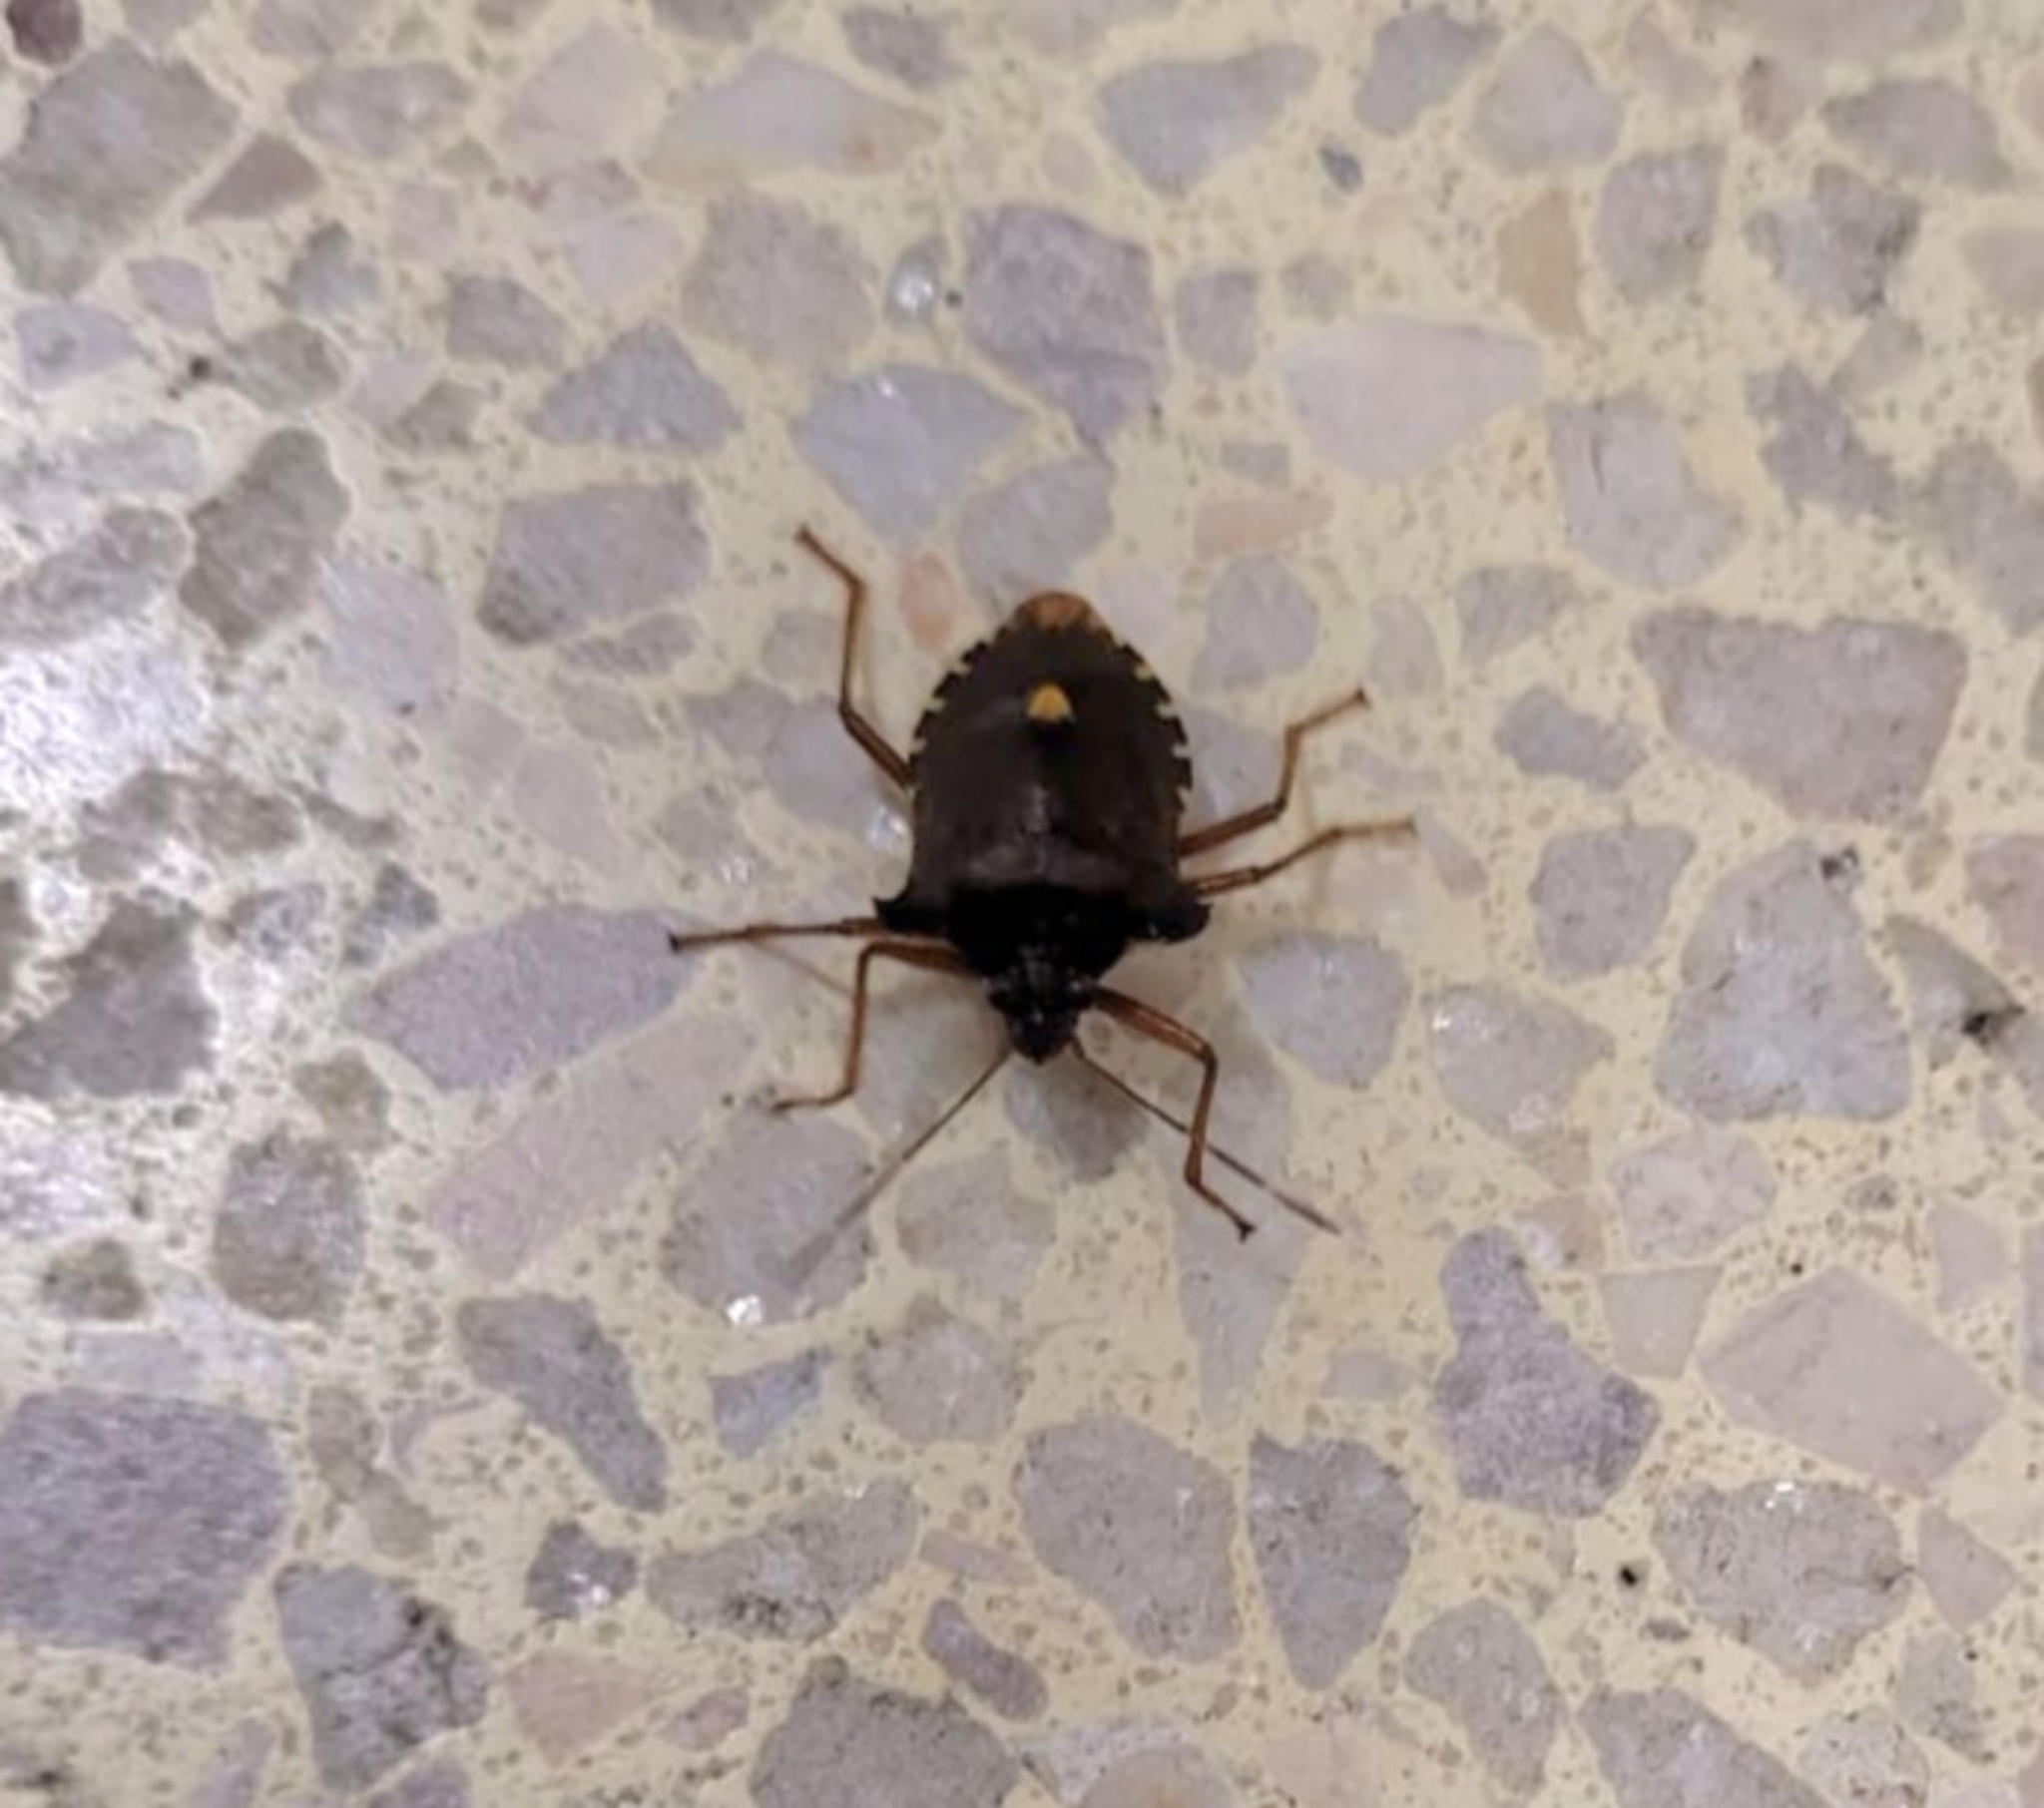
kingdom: Animalia
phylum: Arthropoda
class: Insecta
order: Hemiptera
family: Pentatomidae
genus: Pentatoma
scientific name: Pentatoma rufipes
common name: Forest bug
